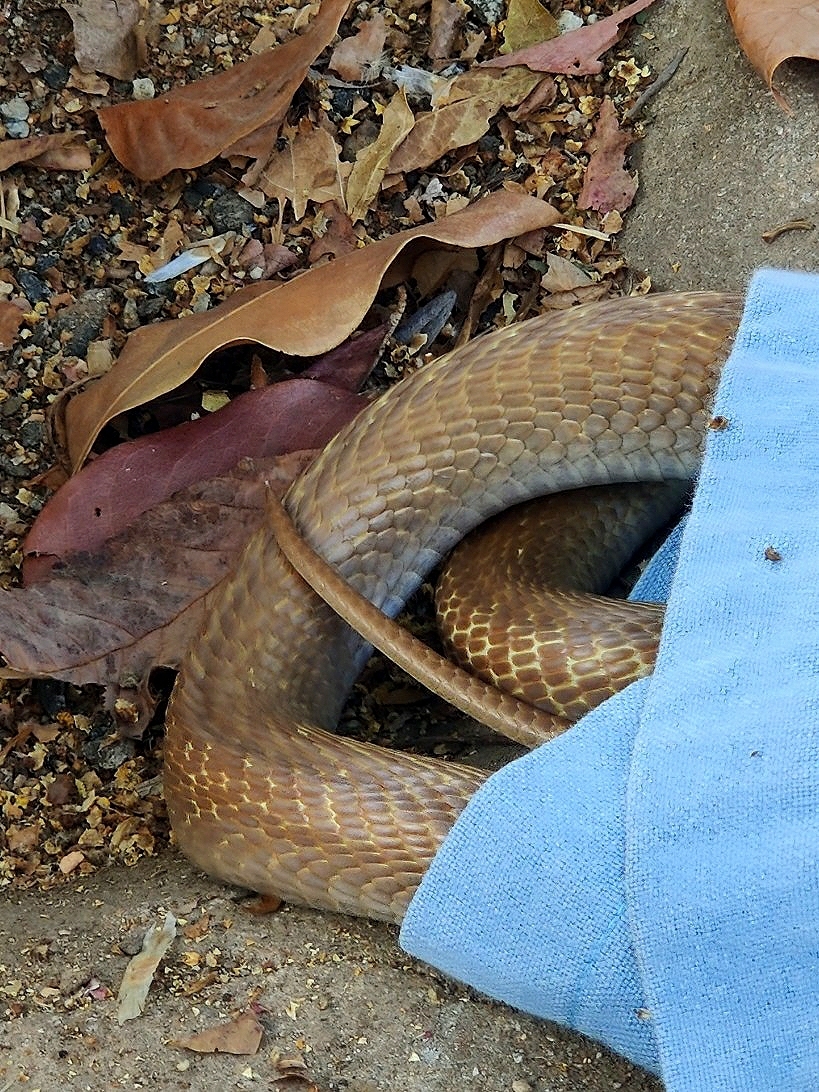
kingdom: Animalia
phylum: Chordata
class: Squamata
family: Elapidae
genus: Naja
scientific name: Naja naja
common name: Indian cobra
